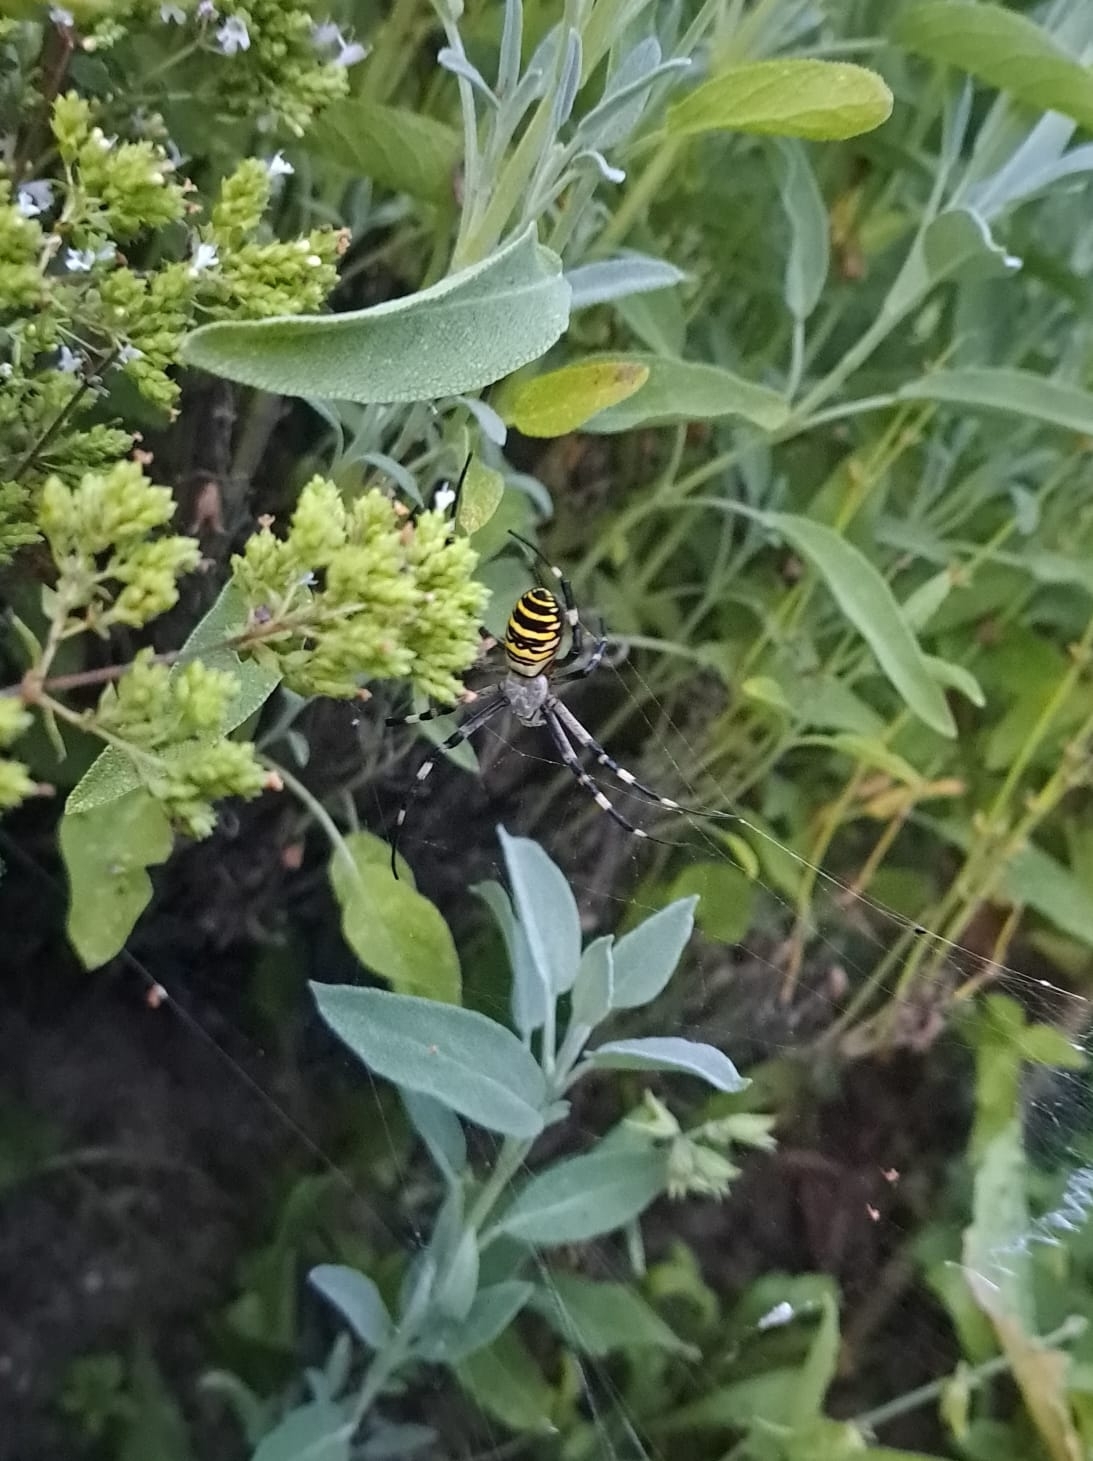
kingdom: Animalia
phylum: Arthropoda
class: Arachnida
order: Araneae
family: Araneidae
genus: Argiope
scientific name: Argiope bruennichi
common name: Wasp spider
